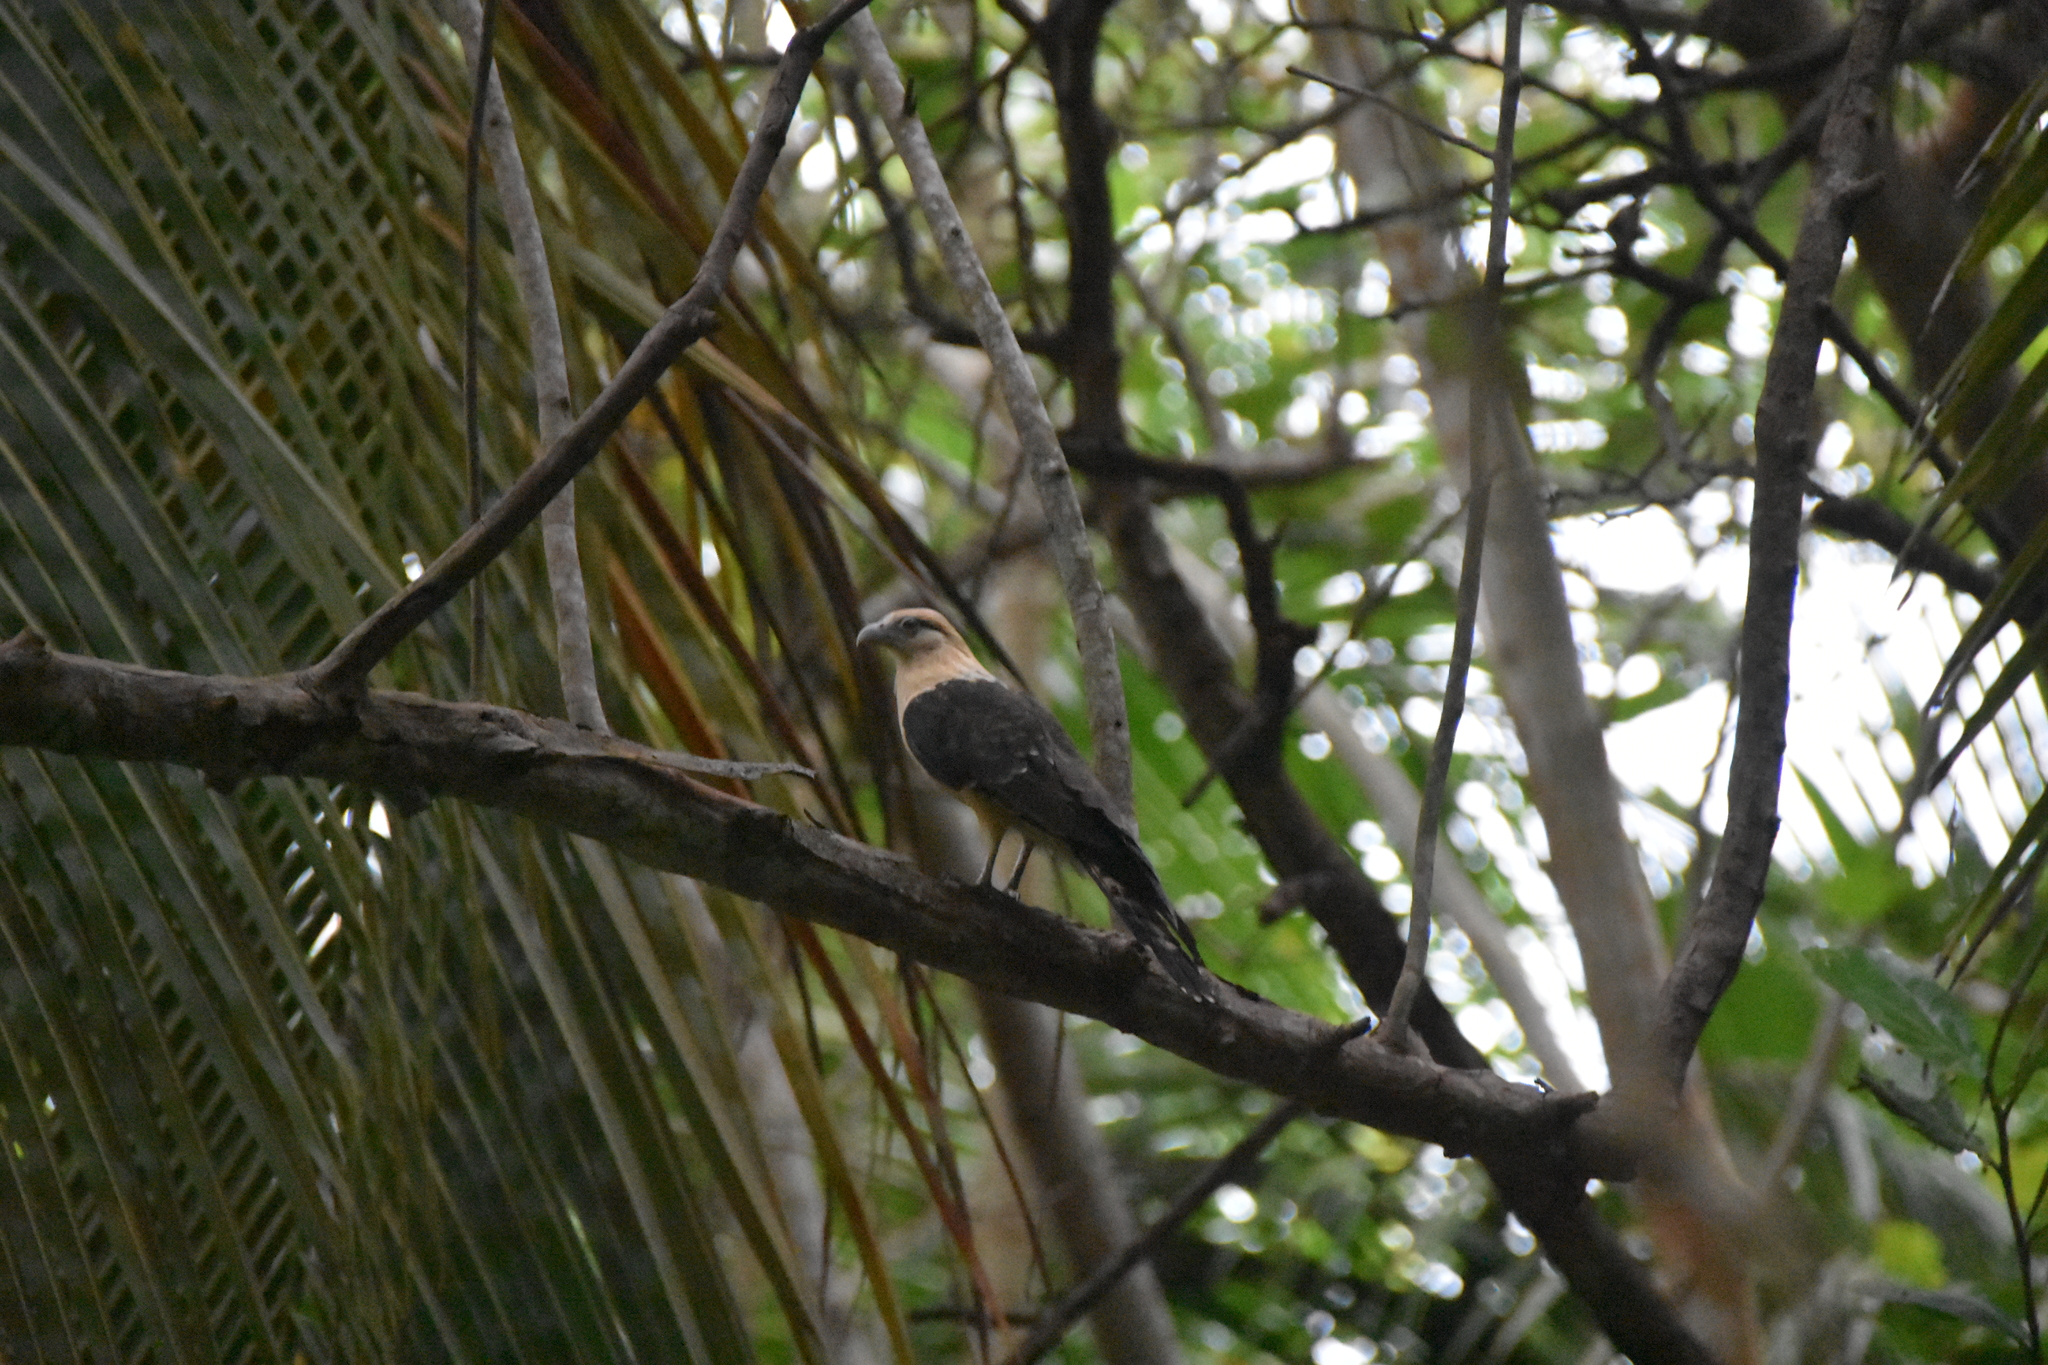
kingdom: Animalia
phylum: Chordata
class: Aves
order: Falconiformes
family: Falconidae
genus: Daptrius
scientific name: Daptrius
